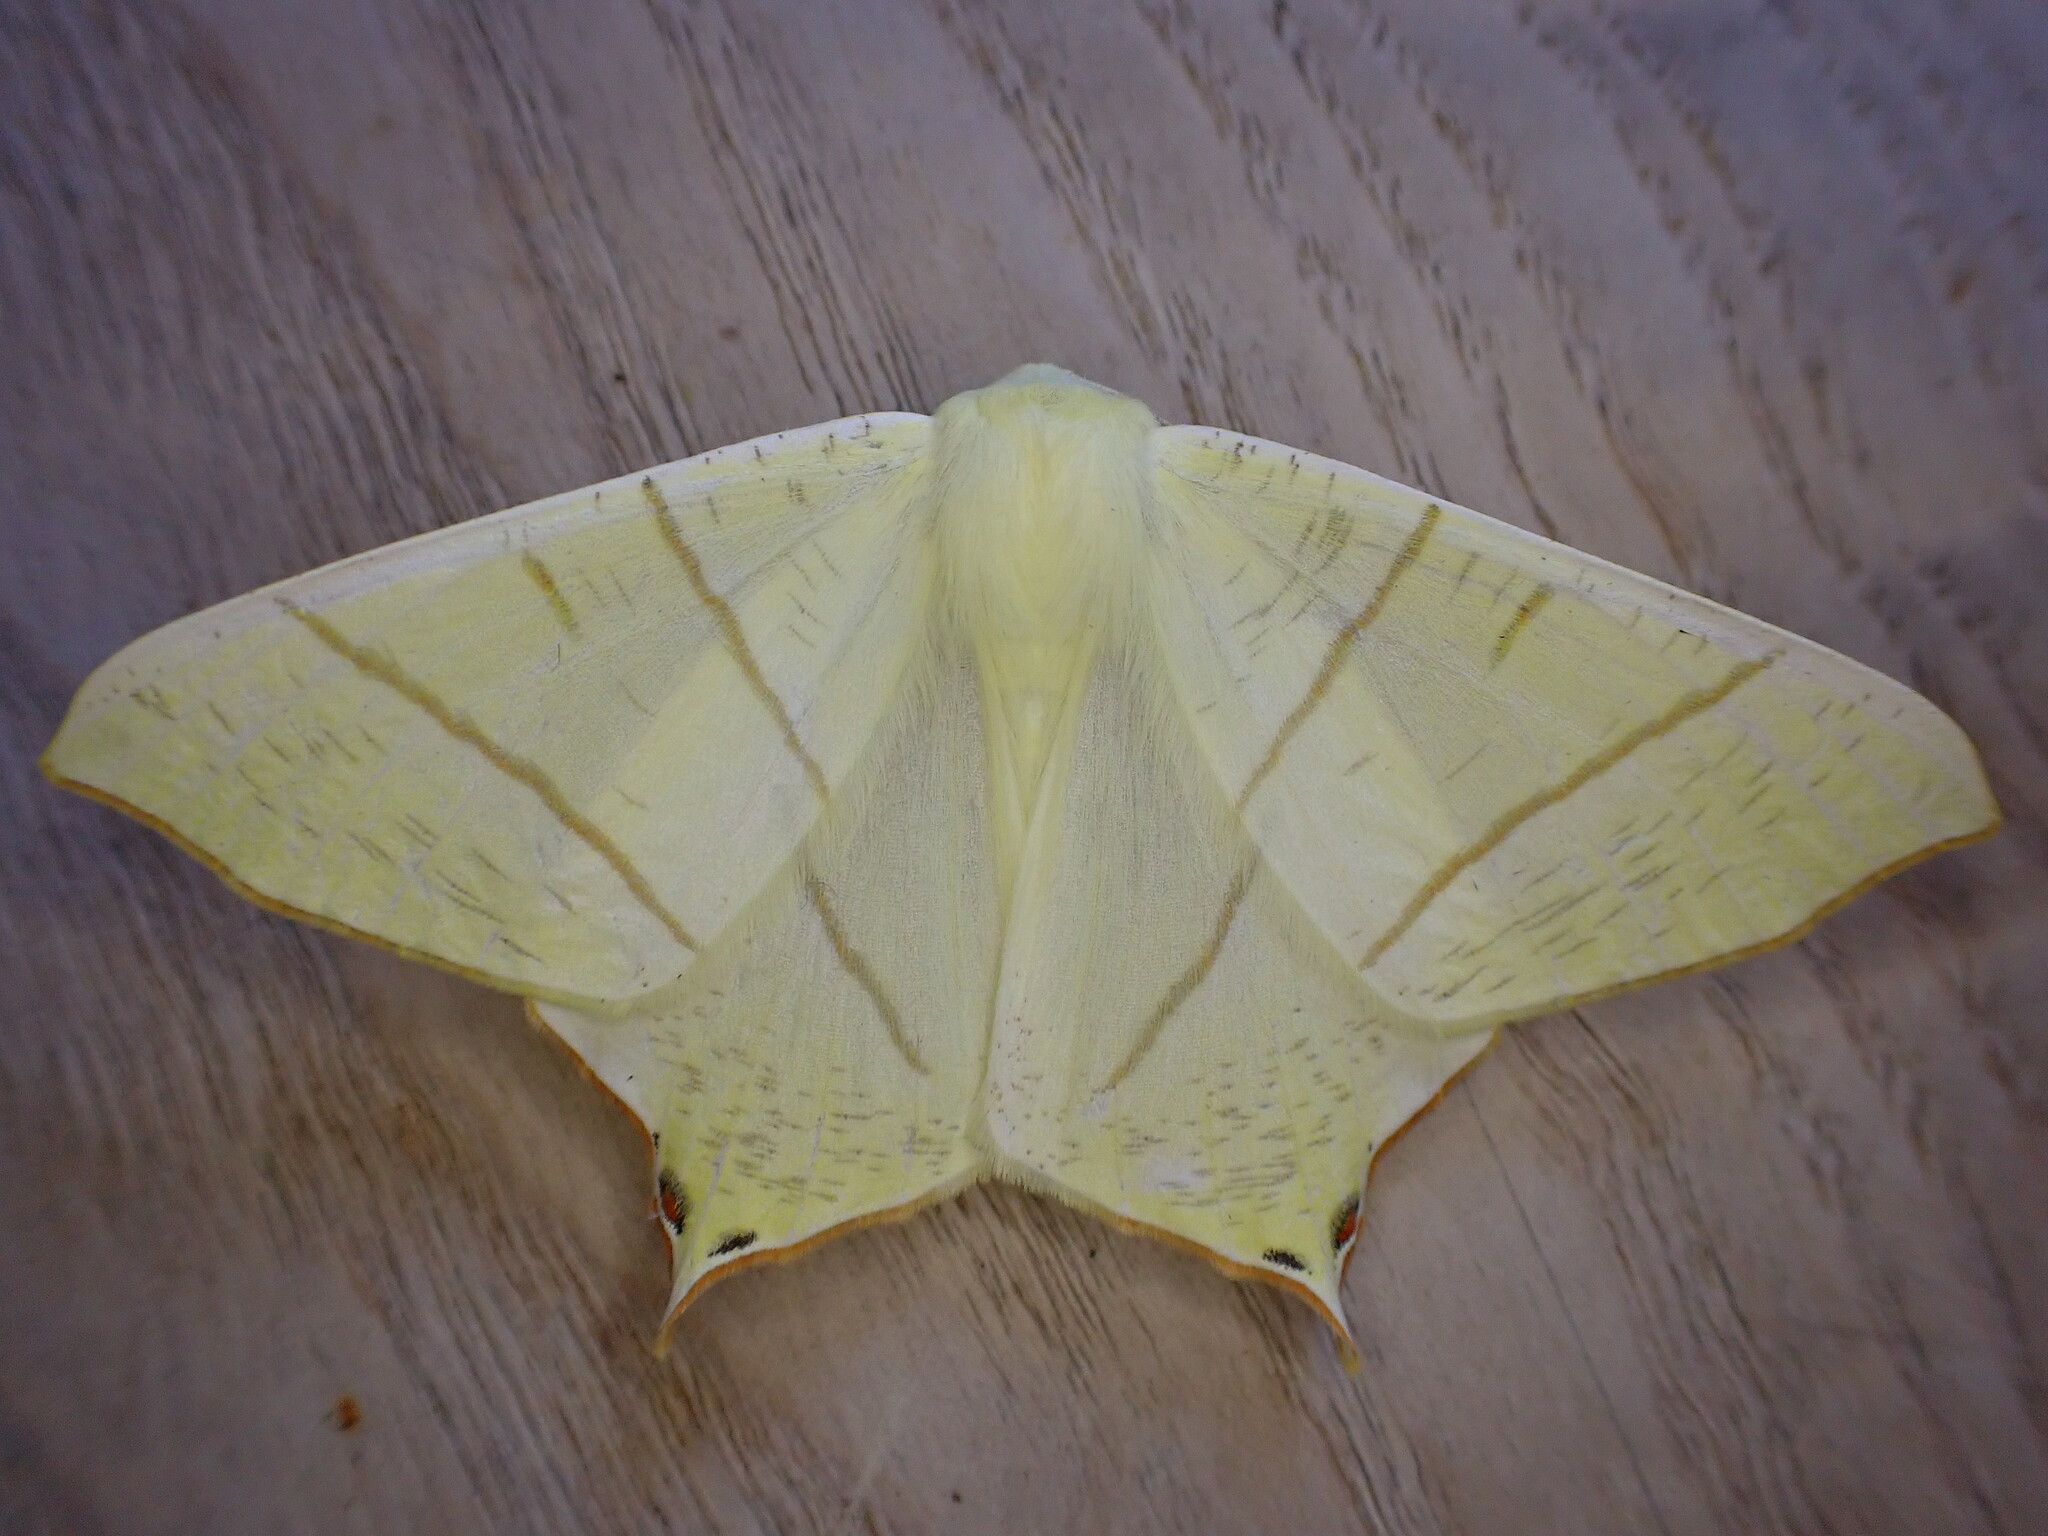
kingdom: Animalia
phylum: Arthropoda
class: Insecta
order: Lepidoptera
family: Geometridae
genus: Ourapteryx
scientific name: Ourapteryx sambucaria
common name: Swallow-tailed moth
